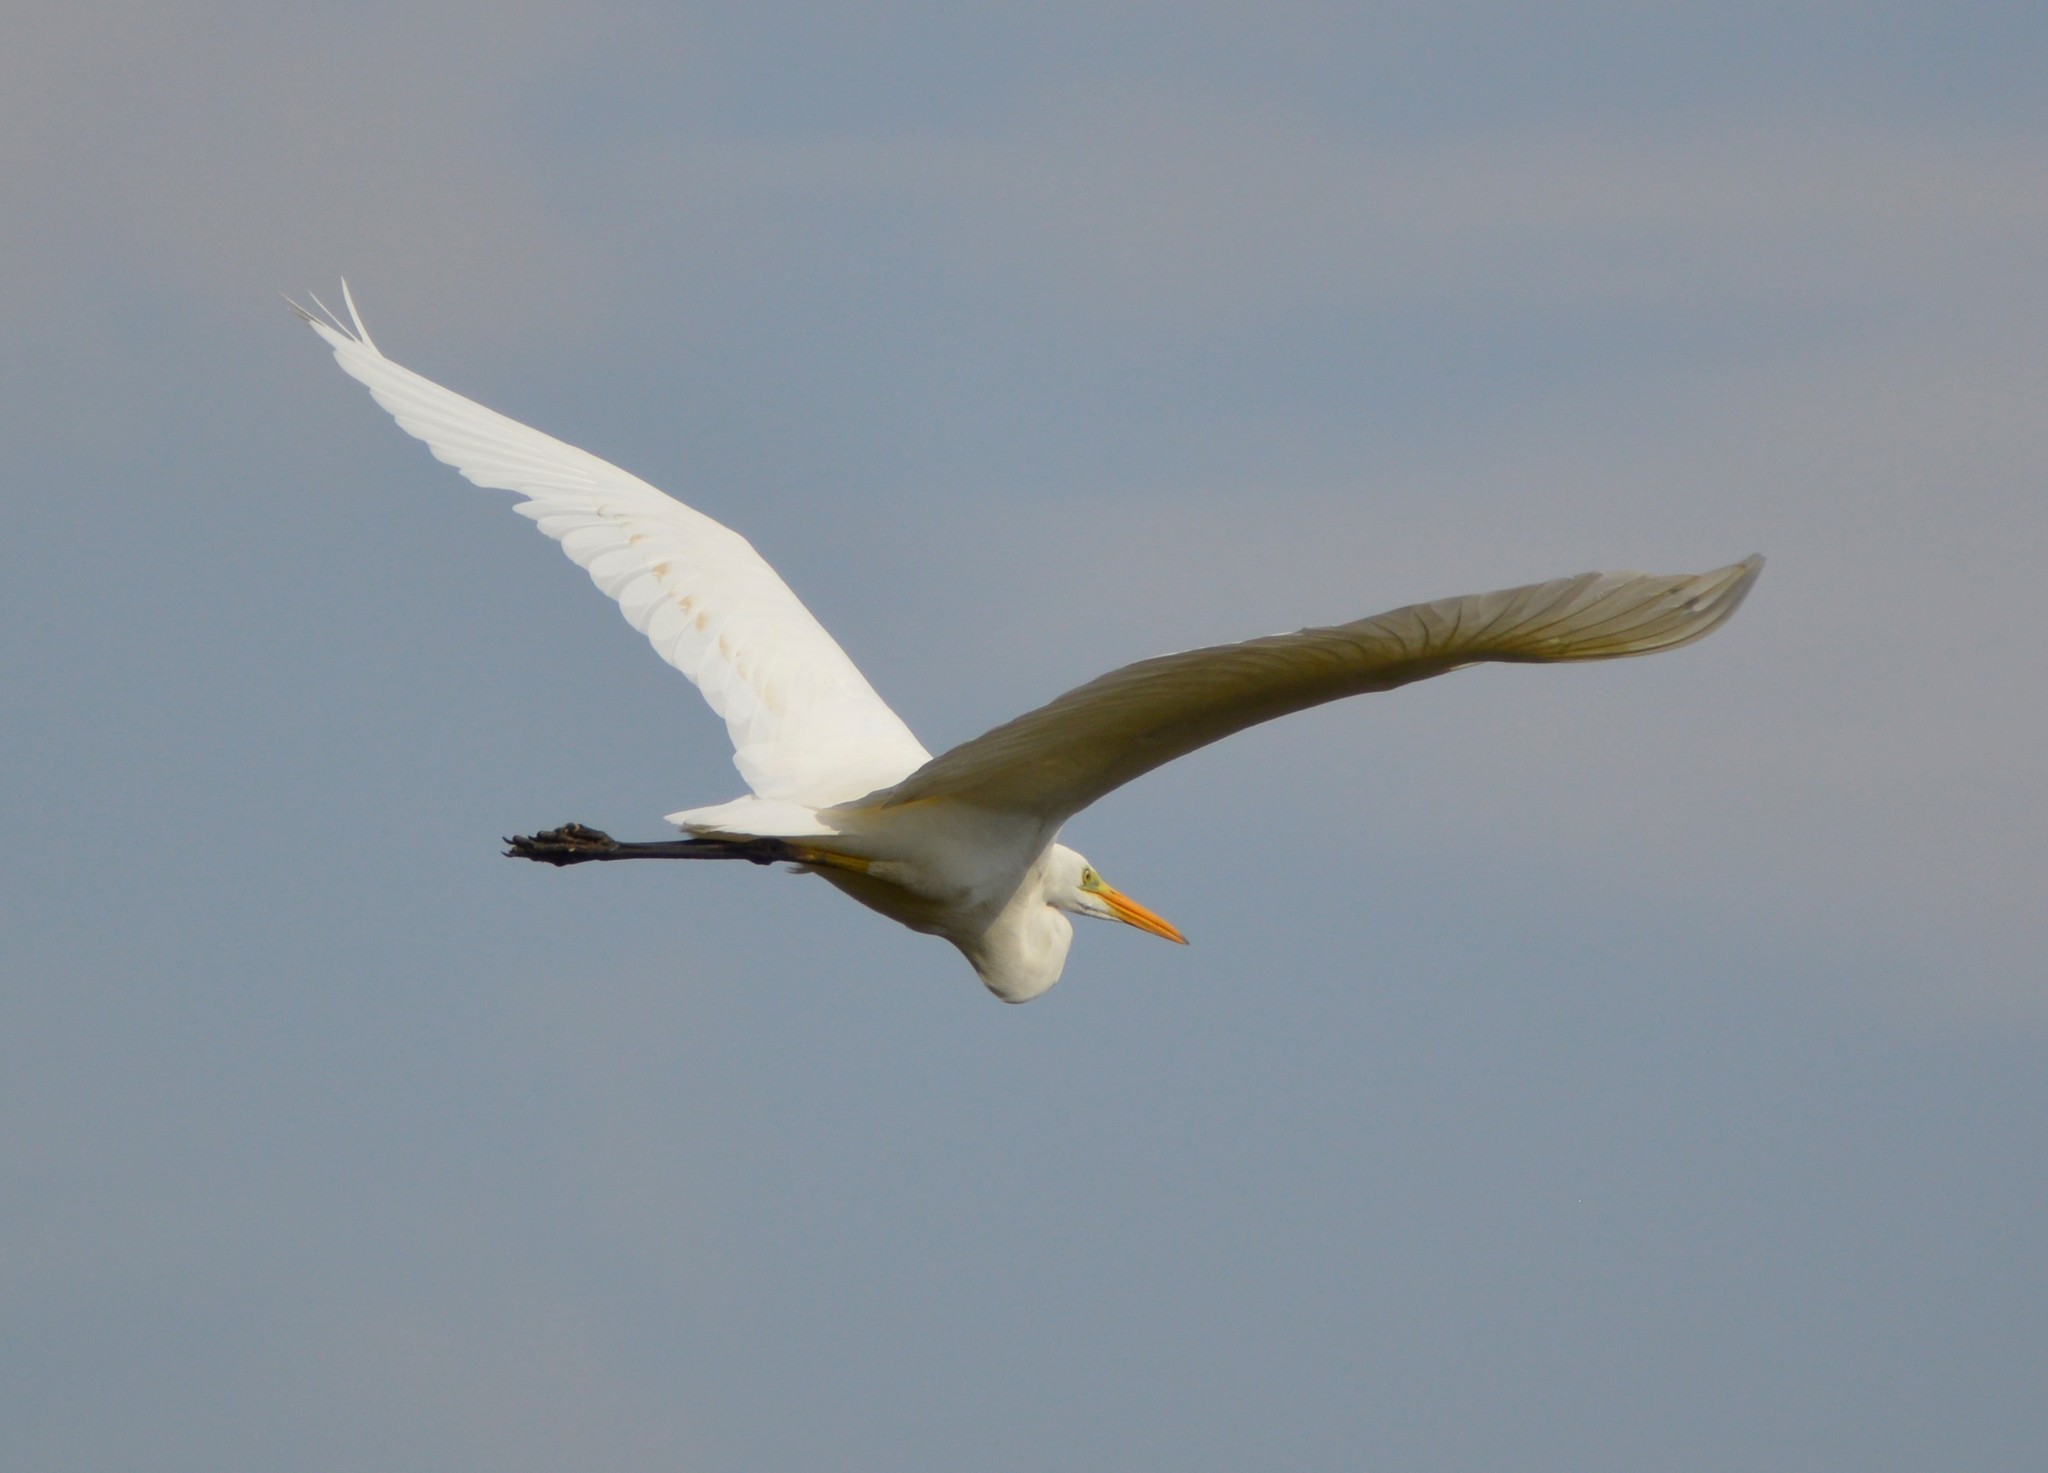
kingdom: Animalia
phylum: Chordata
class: Aves
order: Pelecaniformes
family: Ardeidae
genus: Ardea
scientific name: Ardea alba
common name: Great egret
